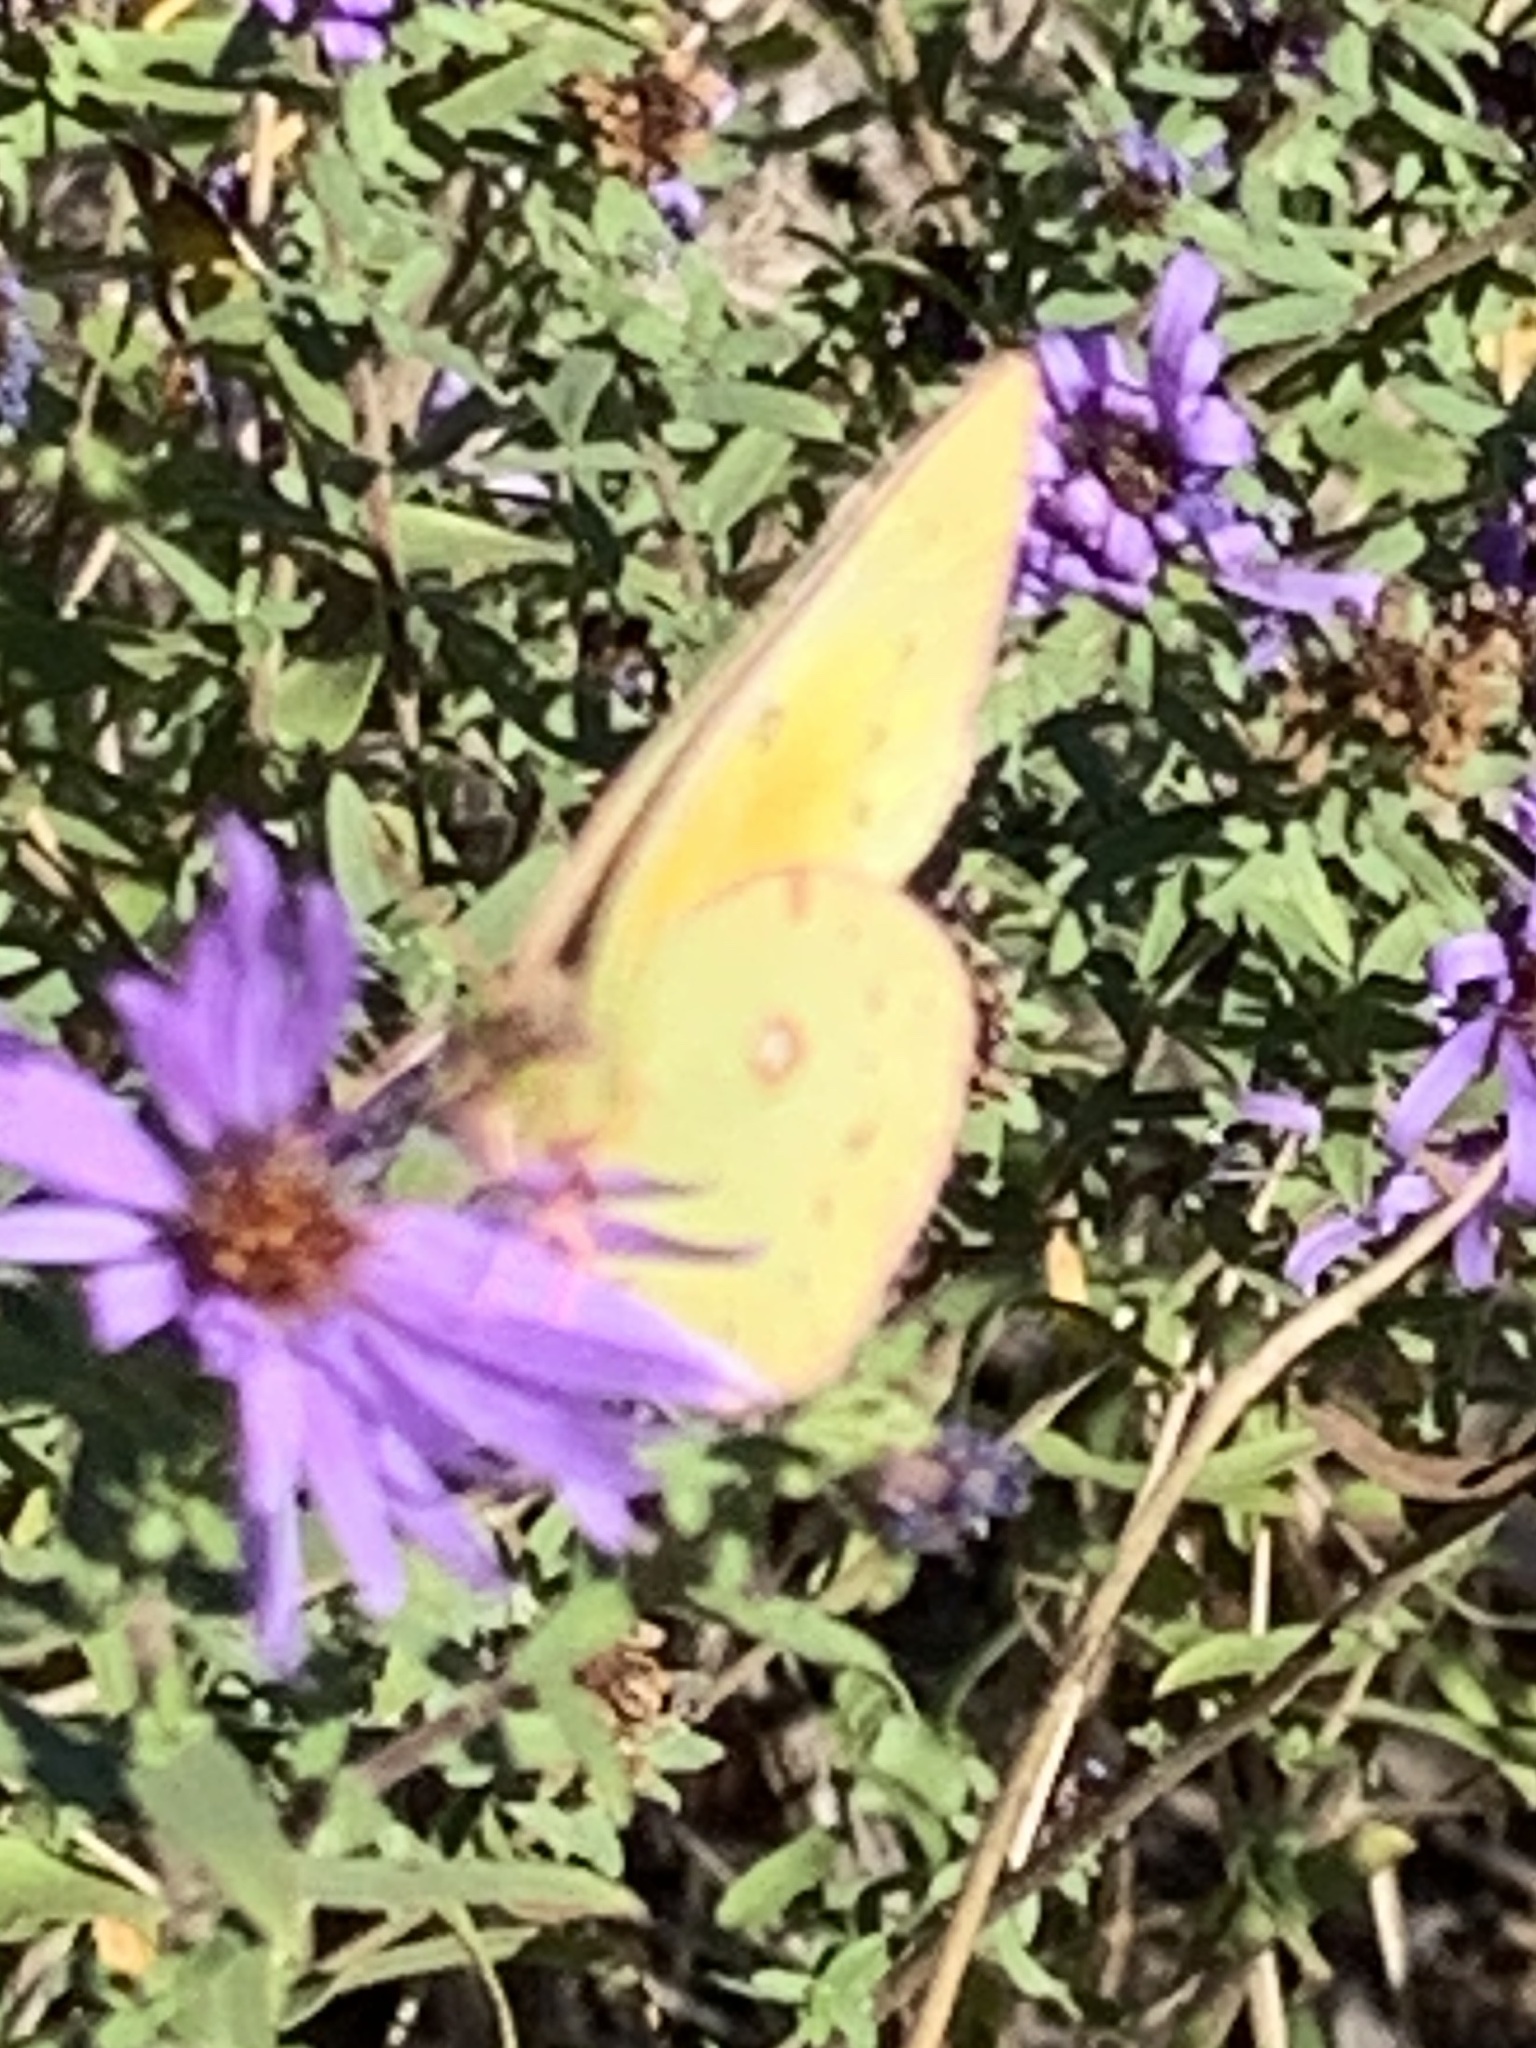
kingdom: Animalia
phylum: Arthropoda
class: Insecta
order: Lepidoptera
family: Pieridae
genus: Colias
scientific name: Colias eurytheme
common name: Alfalfa butterfly
